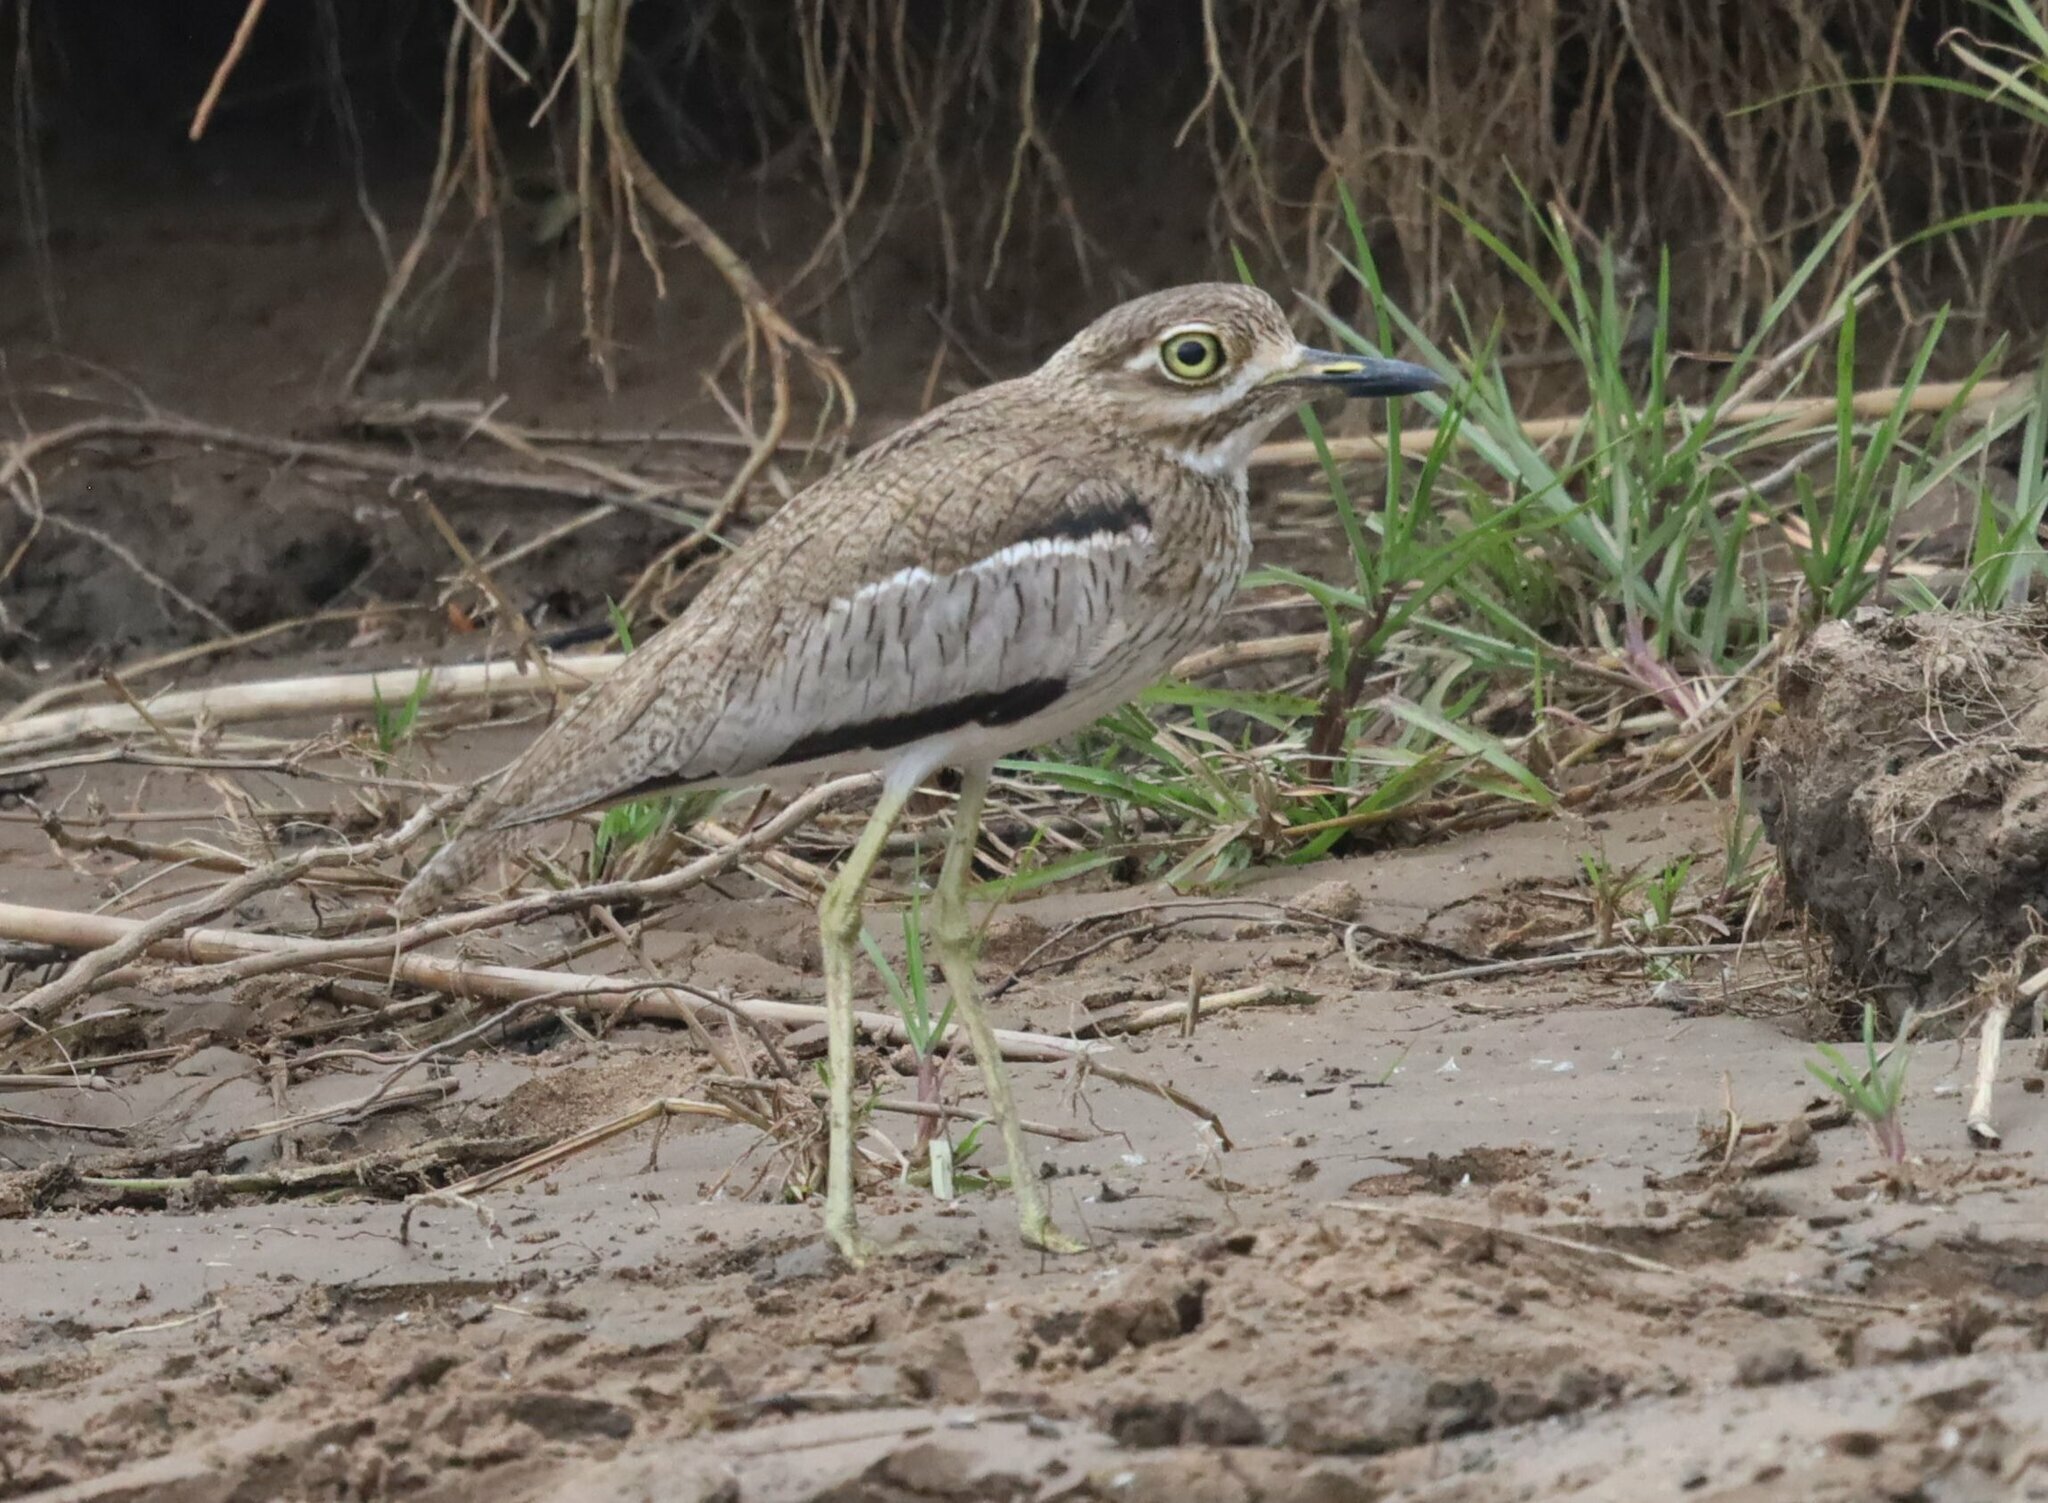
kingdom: Animalia
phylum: Chordata
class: Aves
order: Charadriiformes
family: Burhinidae
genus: Burhinus
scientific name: Burhinus vermiculatus
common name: Water thick-knee
